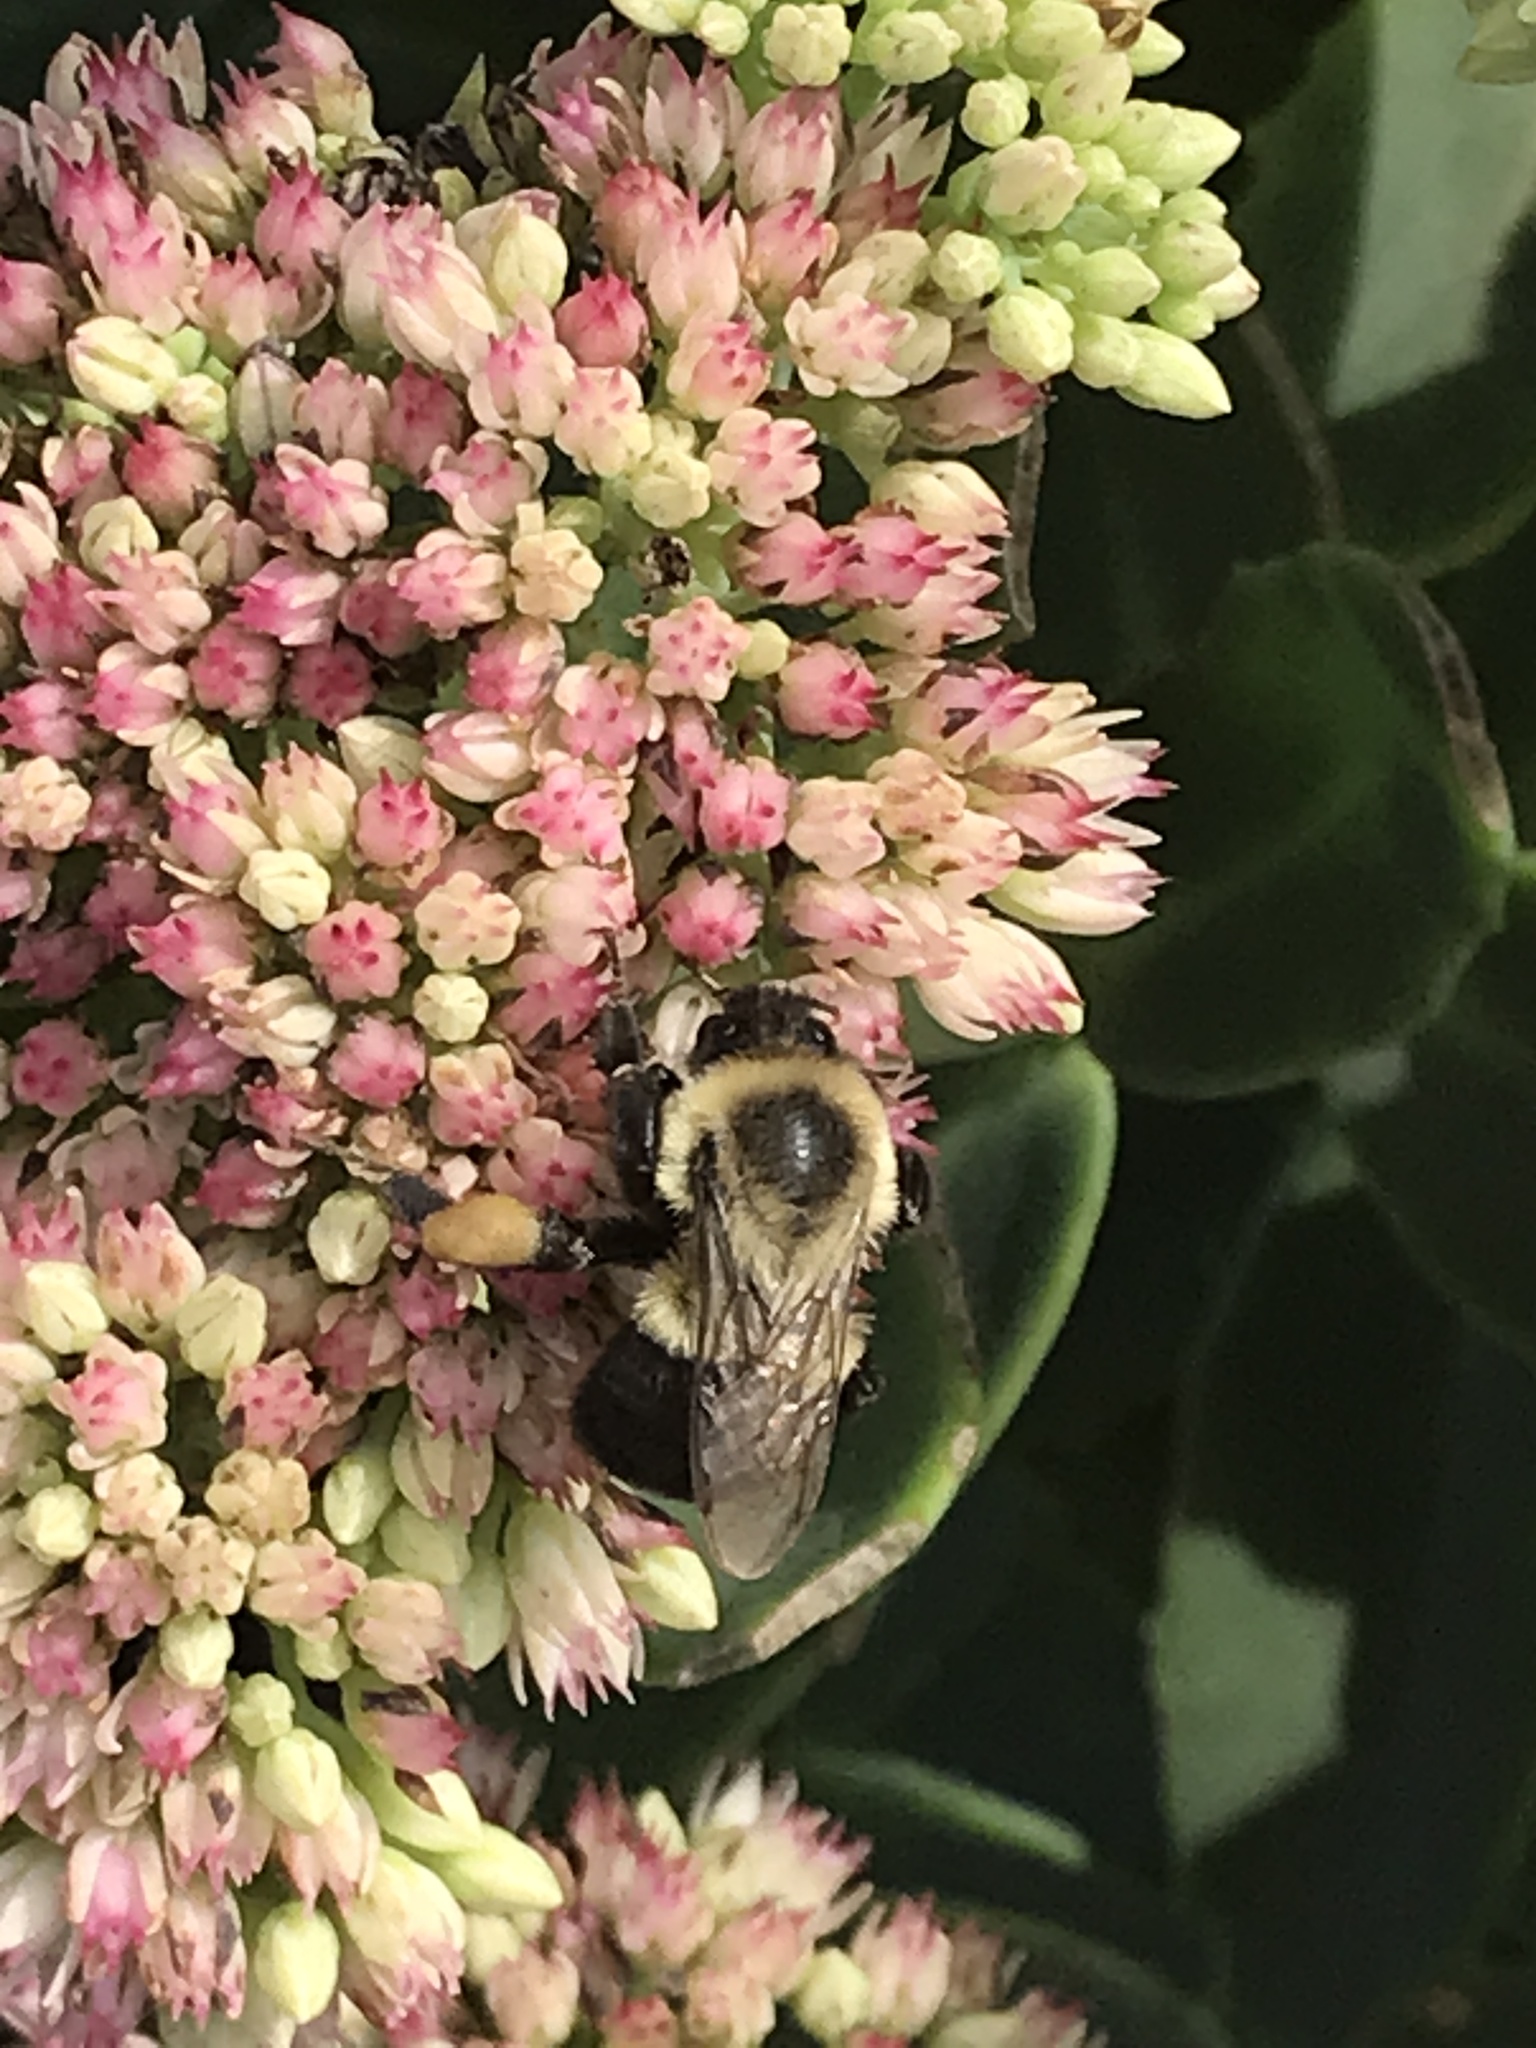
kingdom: Animalia
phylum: Arthropoda
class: Insecta
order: Hymenoptera
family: Apidae
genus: Bombus
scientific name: Bombus impatiens
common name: Common eastern bumble bee
